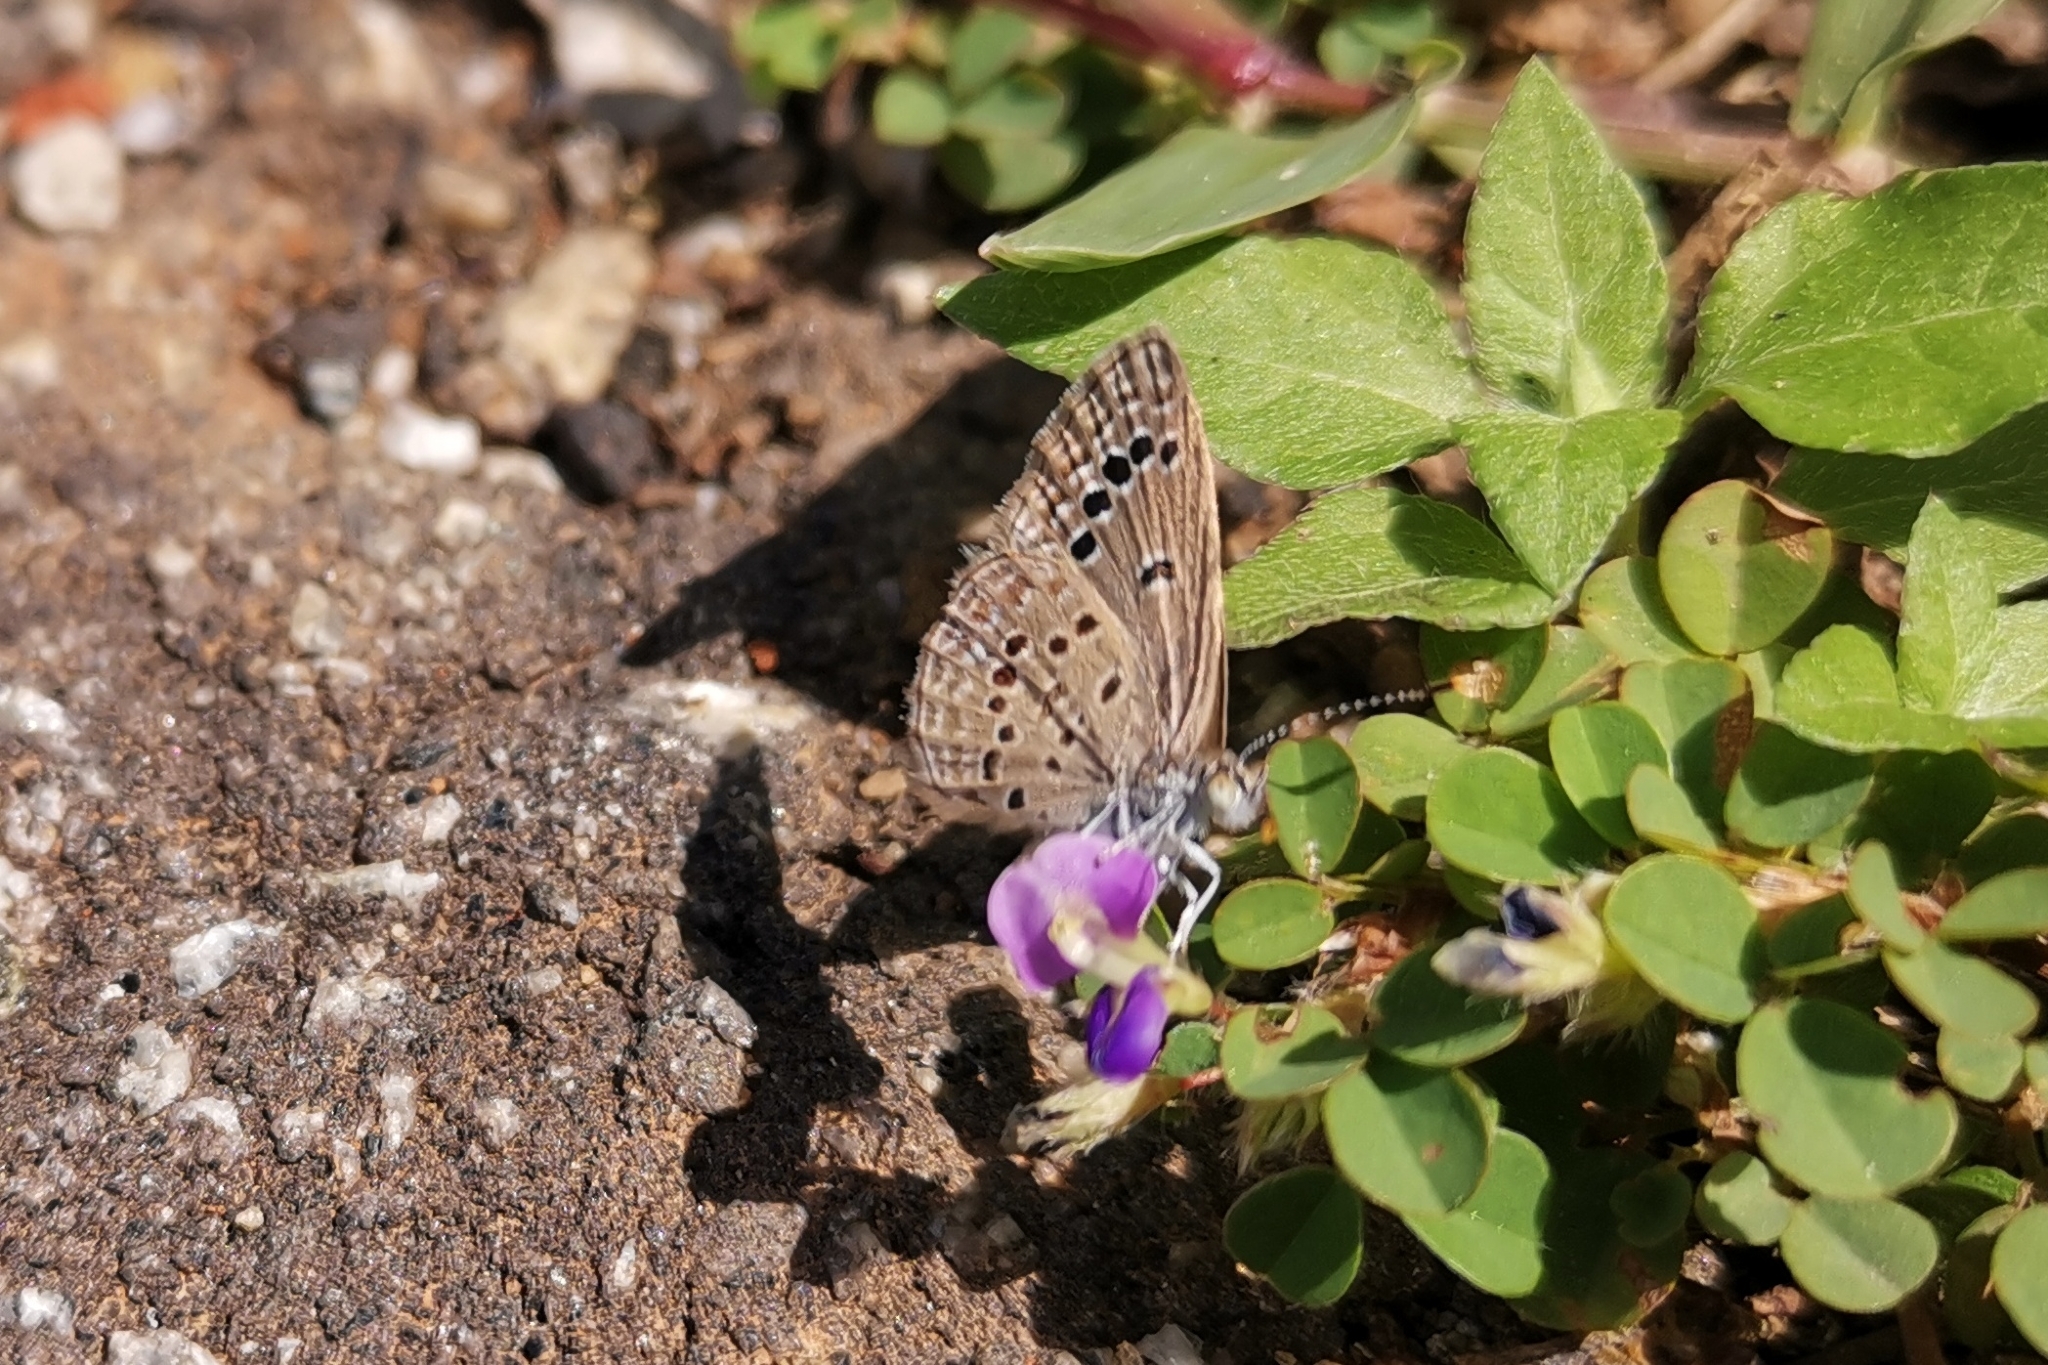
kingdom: Animalia
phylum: Arthropoda
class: Insecta
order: Lepidoptera
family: Lycaenidae
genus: Zizina
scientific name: Zizina otis
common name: Lesser grass blue
